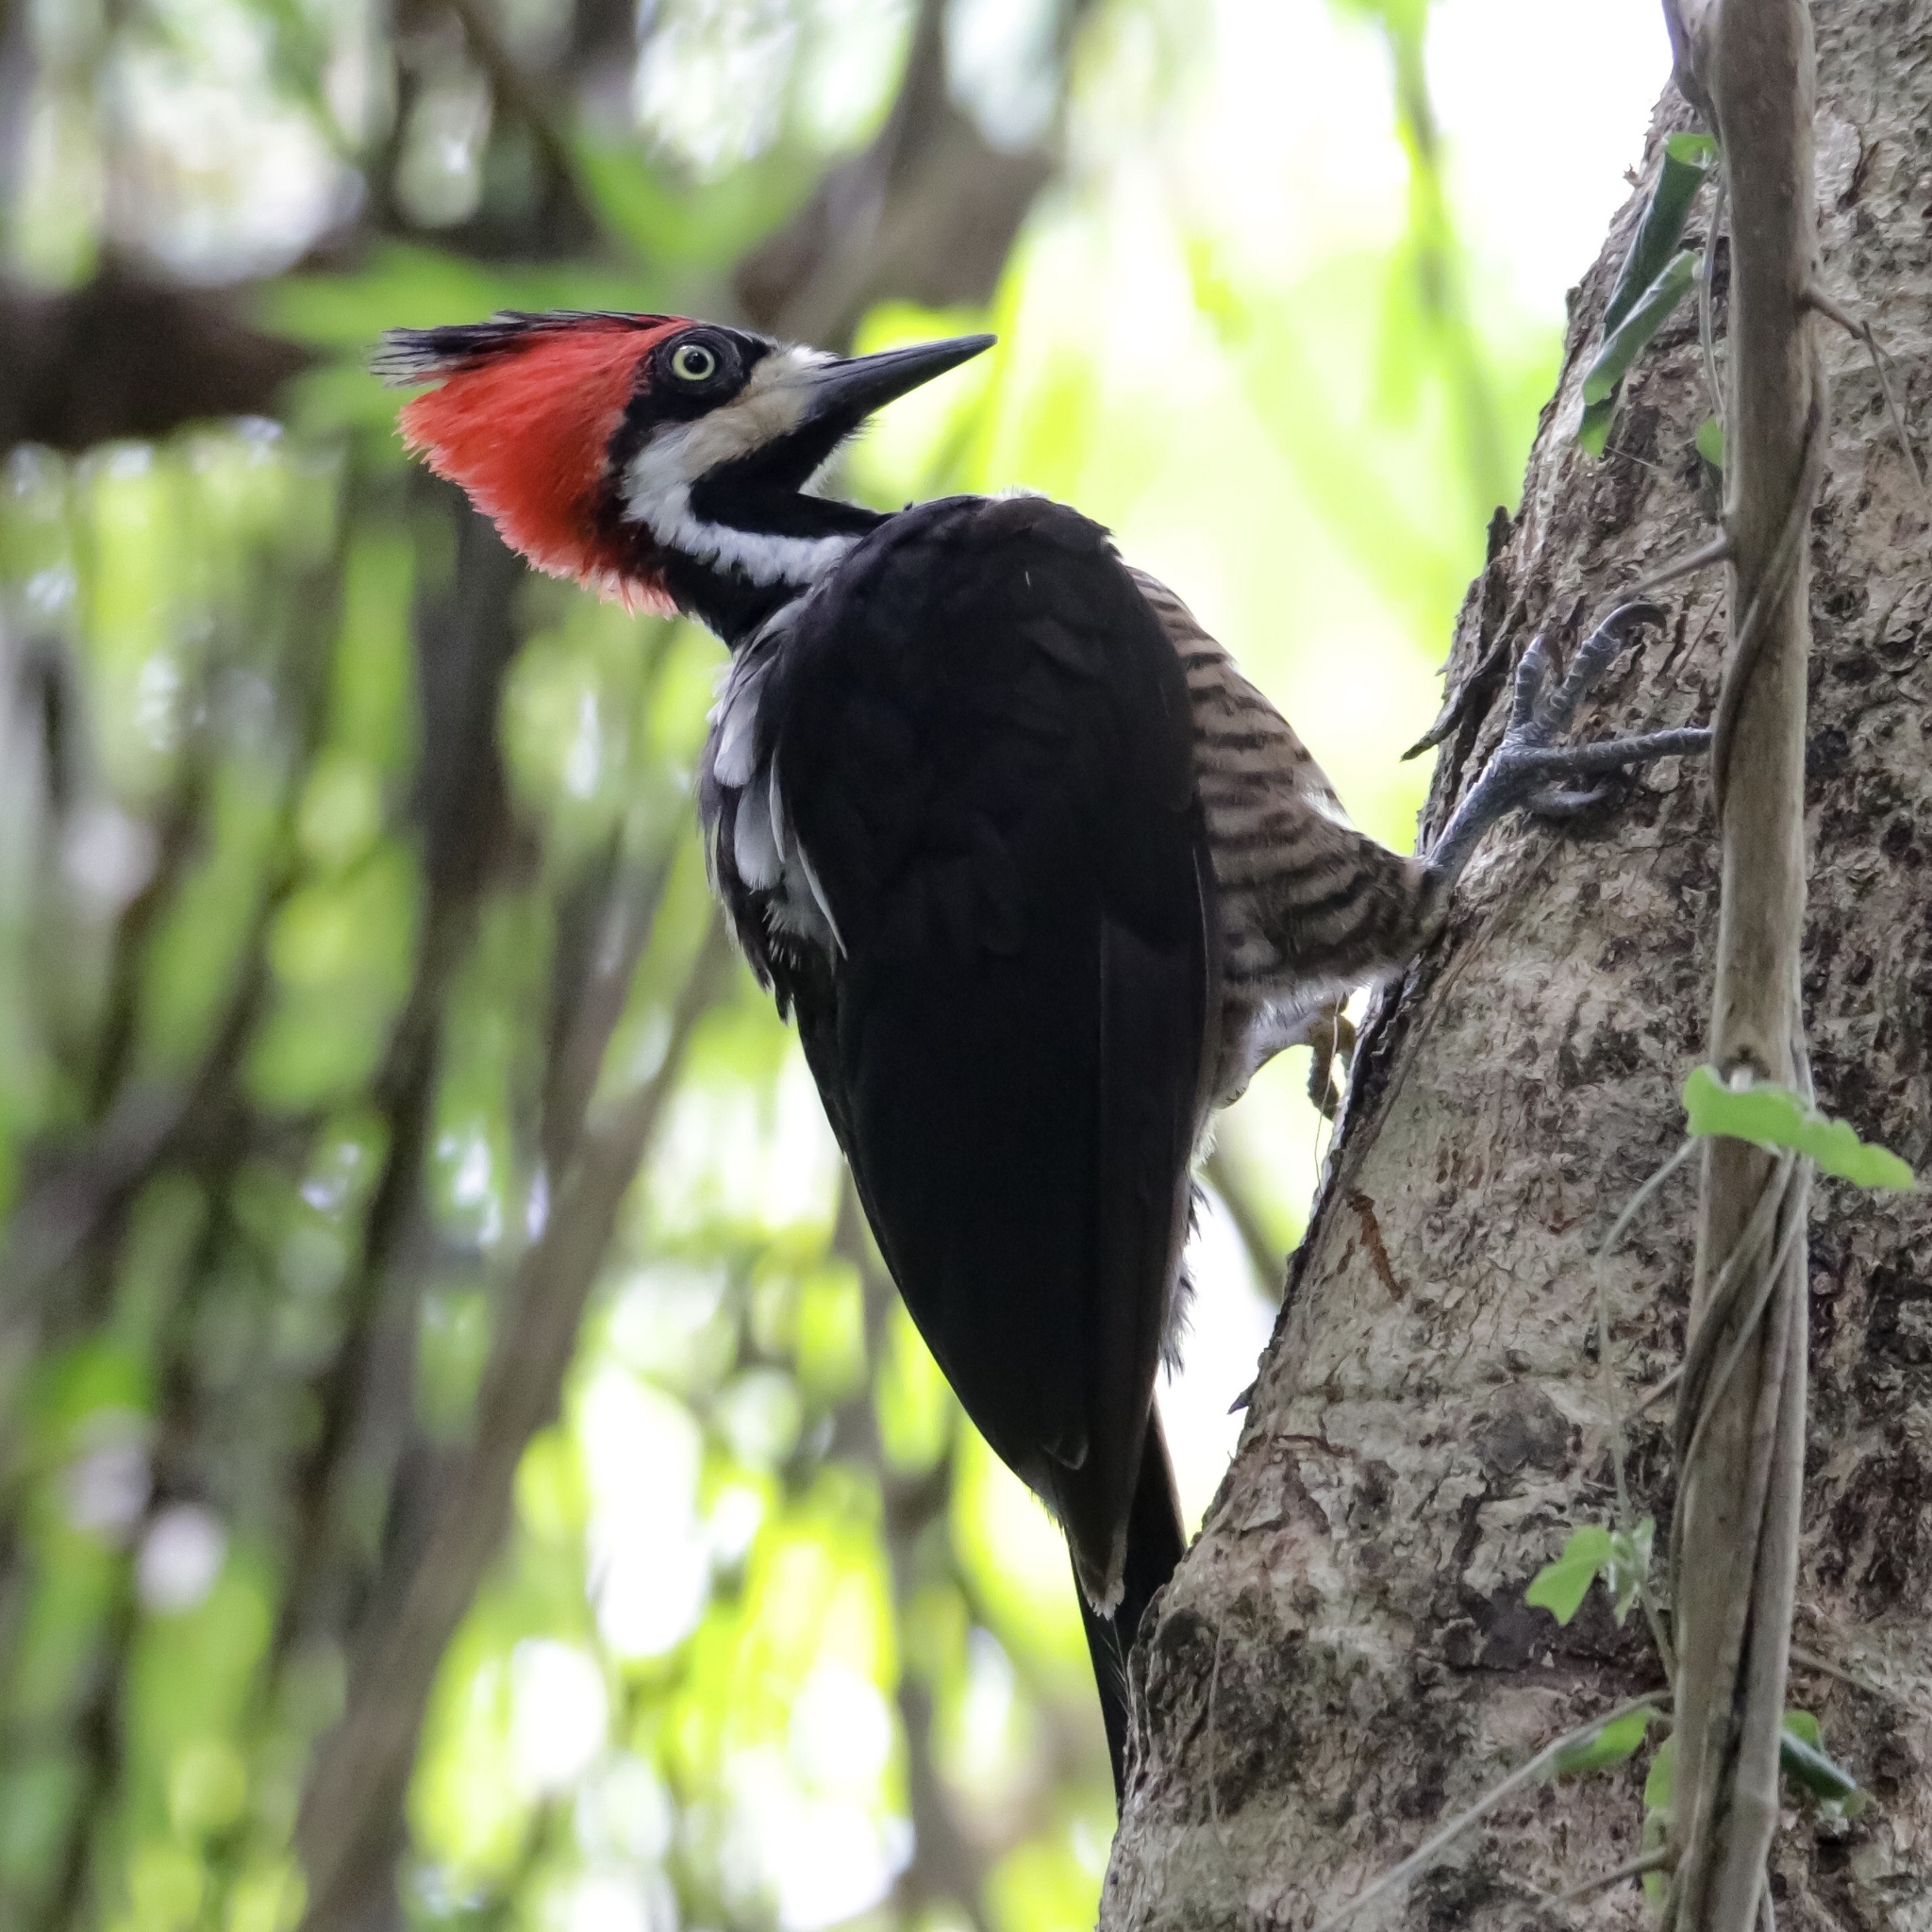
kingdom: Animalia
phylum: Chordata
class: Aves
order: Piciformes
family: Picidae
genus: Campephilus
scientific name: Campephilus melanoleucos
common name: Crimson-crested woodpecker
